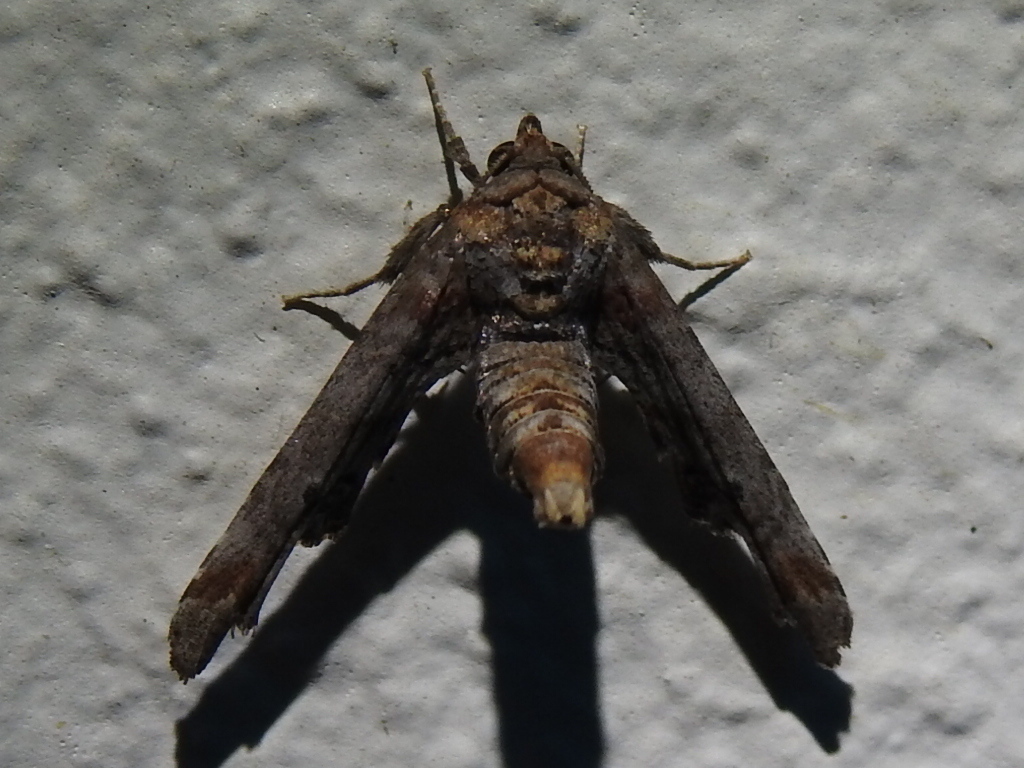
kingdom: Animalia
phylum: Arthropoda
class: Insecta
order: Lepidoptera
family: Euteliidae
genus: Marathyssa
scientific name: Marathyssa inficita
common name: Dark marathyssa moth
